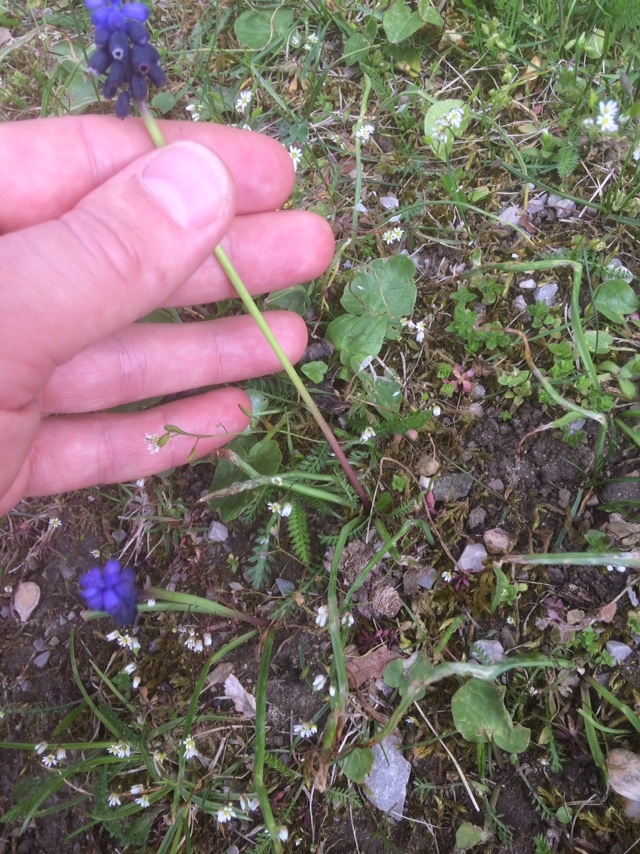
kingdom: Plantae
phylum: Tracheophyta
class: Liliopsida
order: Asparagales
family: Asparagaceae
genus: Muscari
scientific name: Muscari neglectum
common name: Grape-hyacinth
